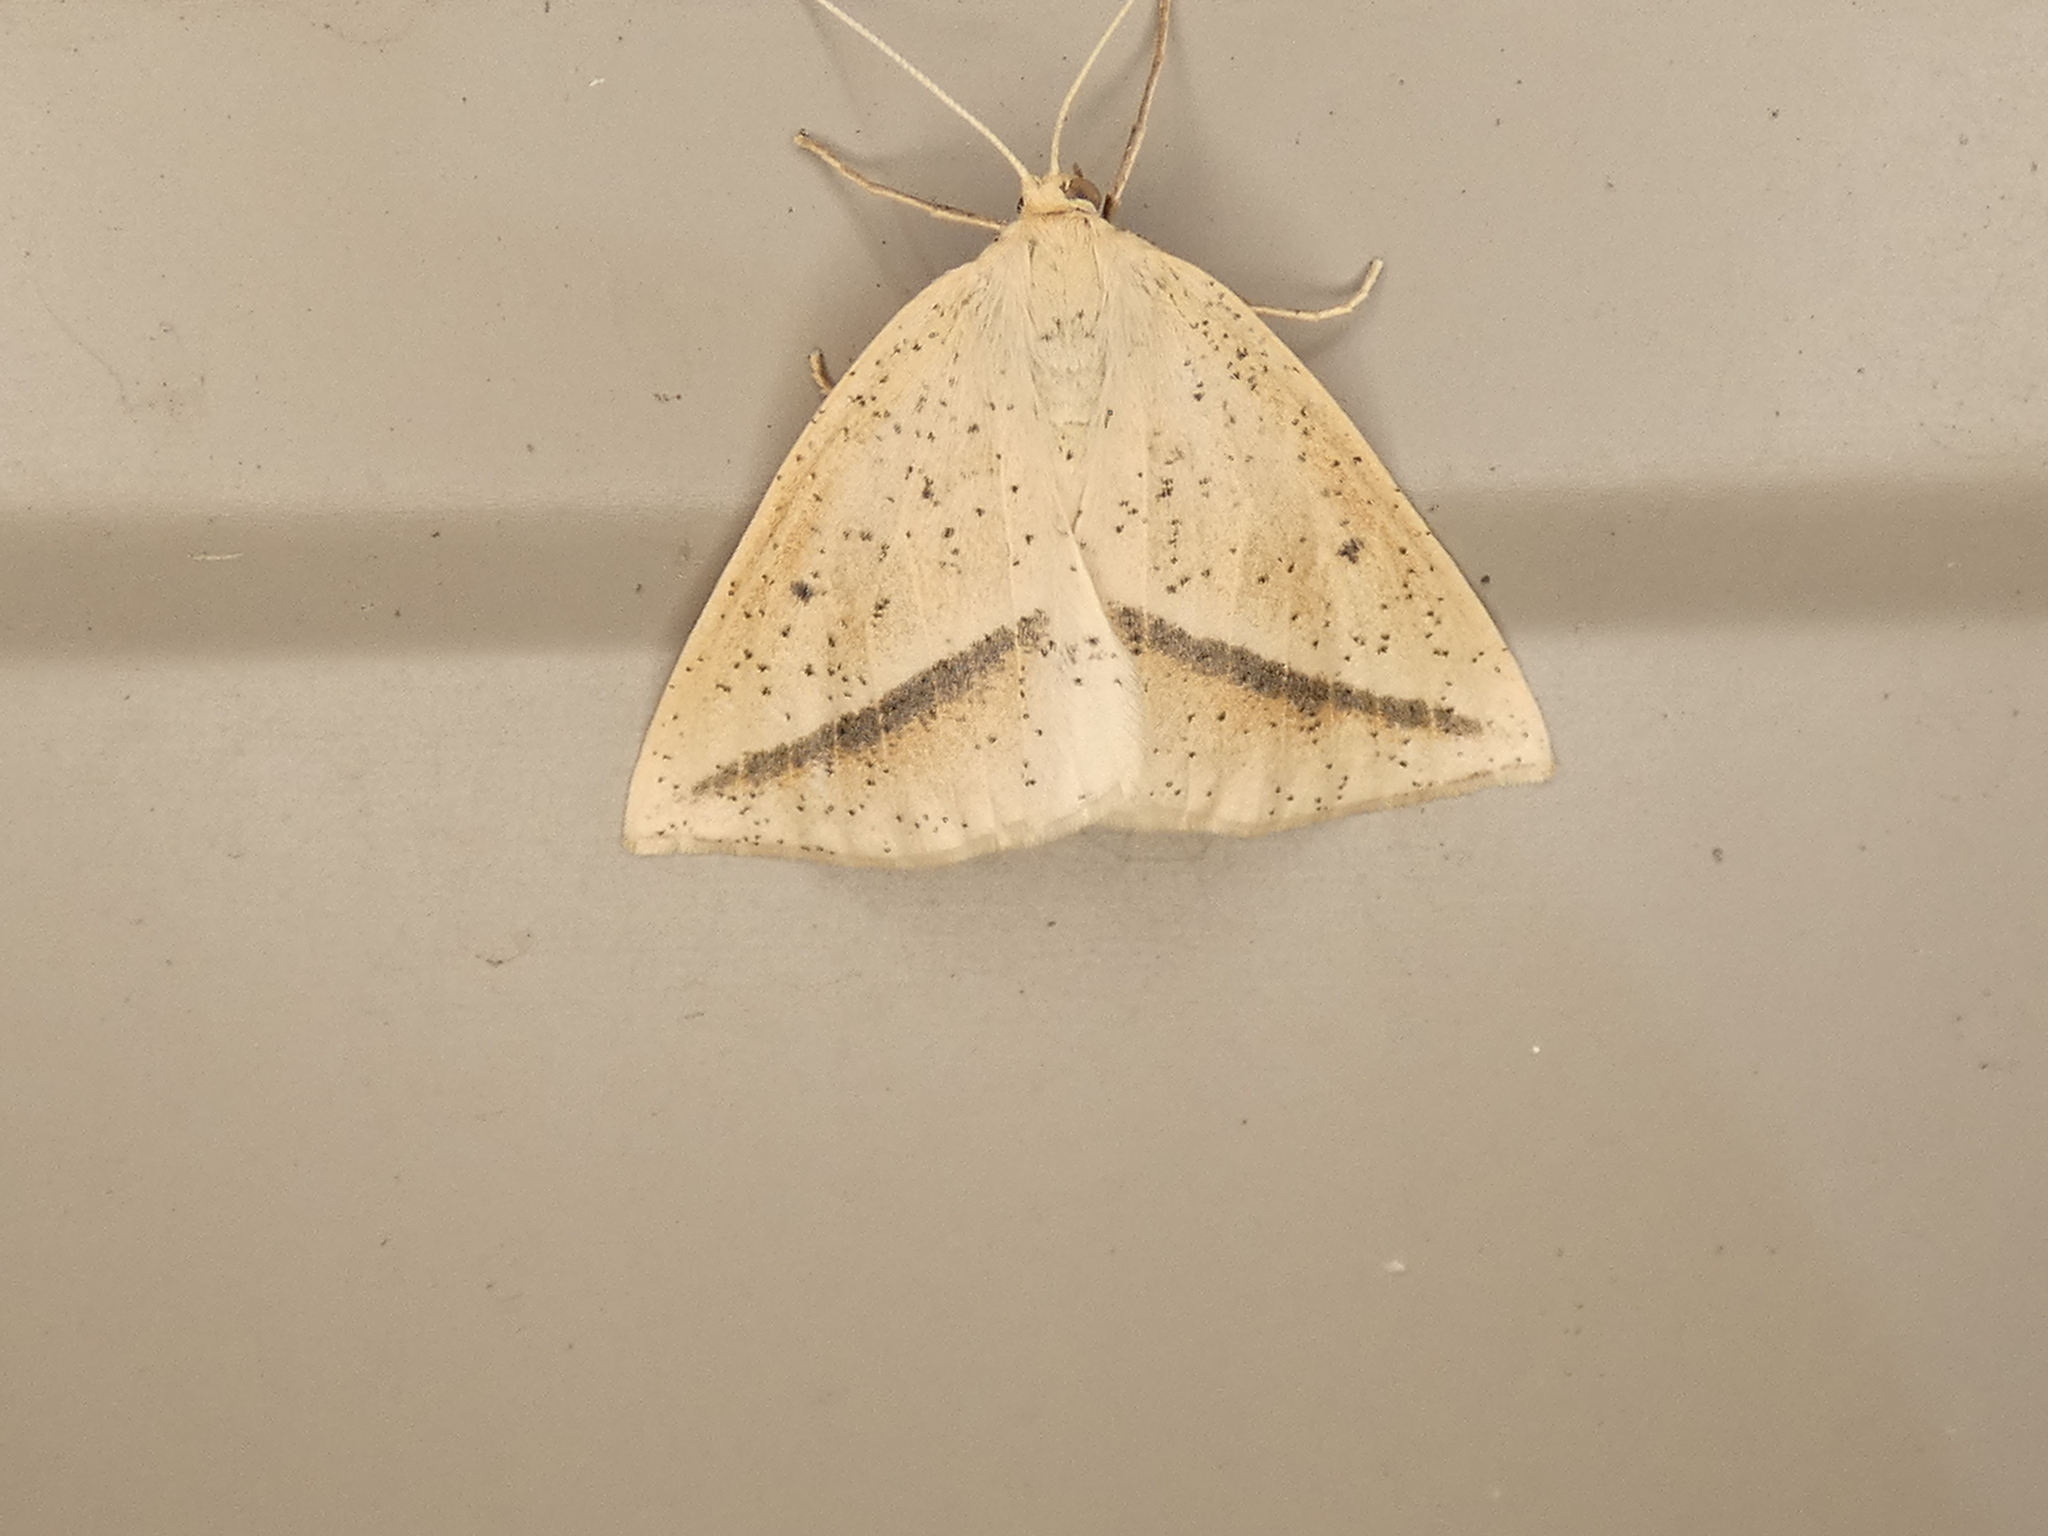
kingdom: Animalia
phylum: Arthropoda
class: Insecta
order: Lepidoptera
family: Geometridae
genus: Lychnosea
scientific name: Lychnosea intermicata
